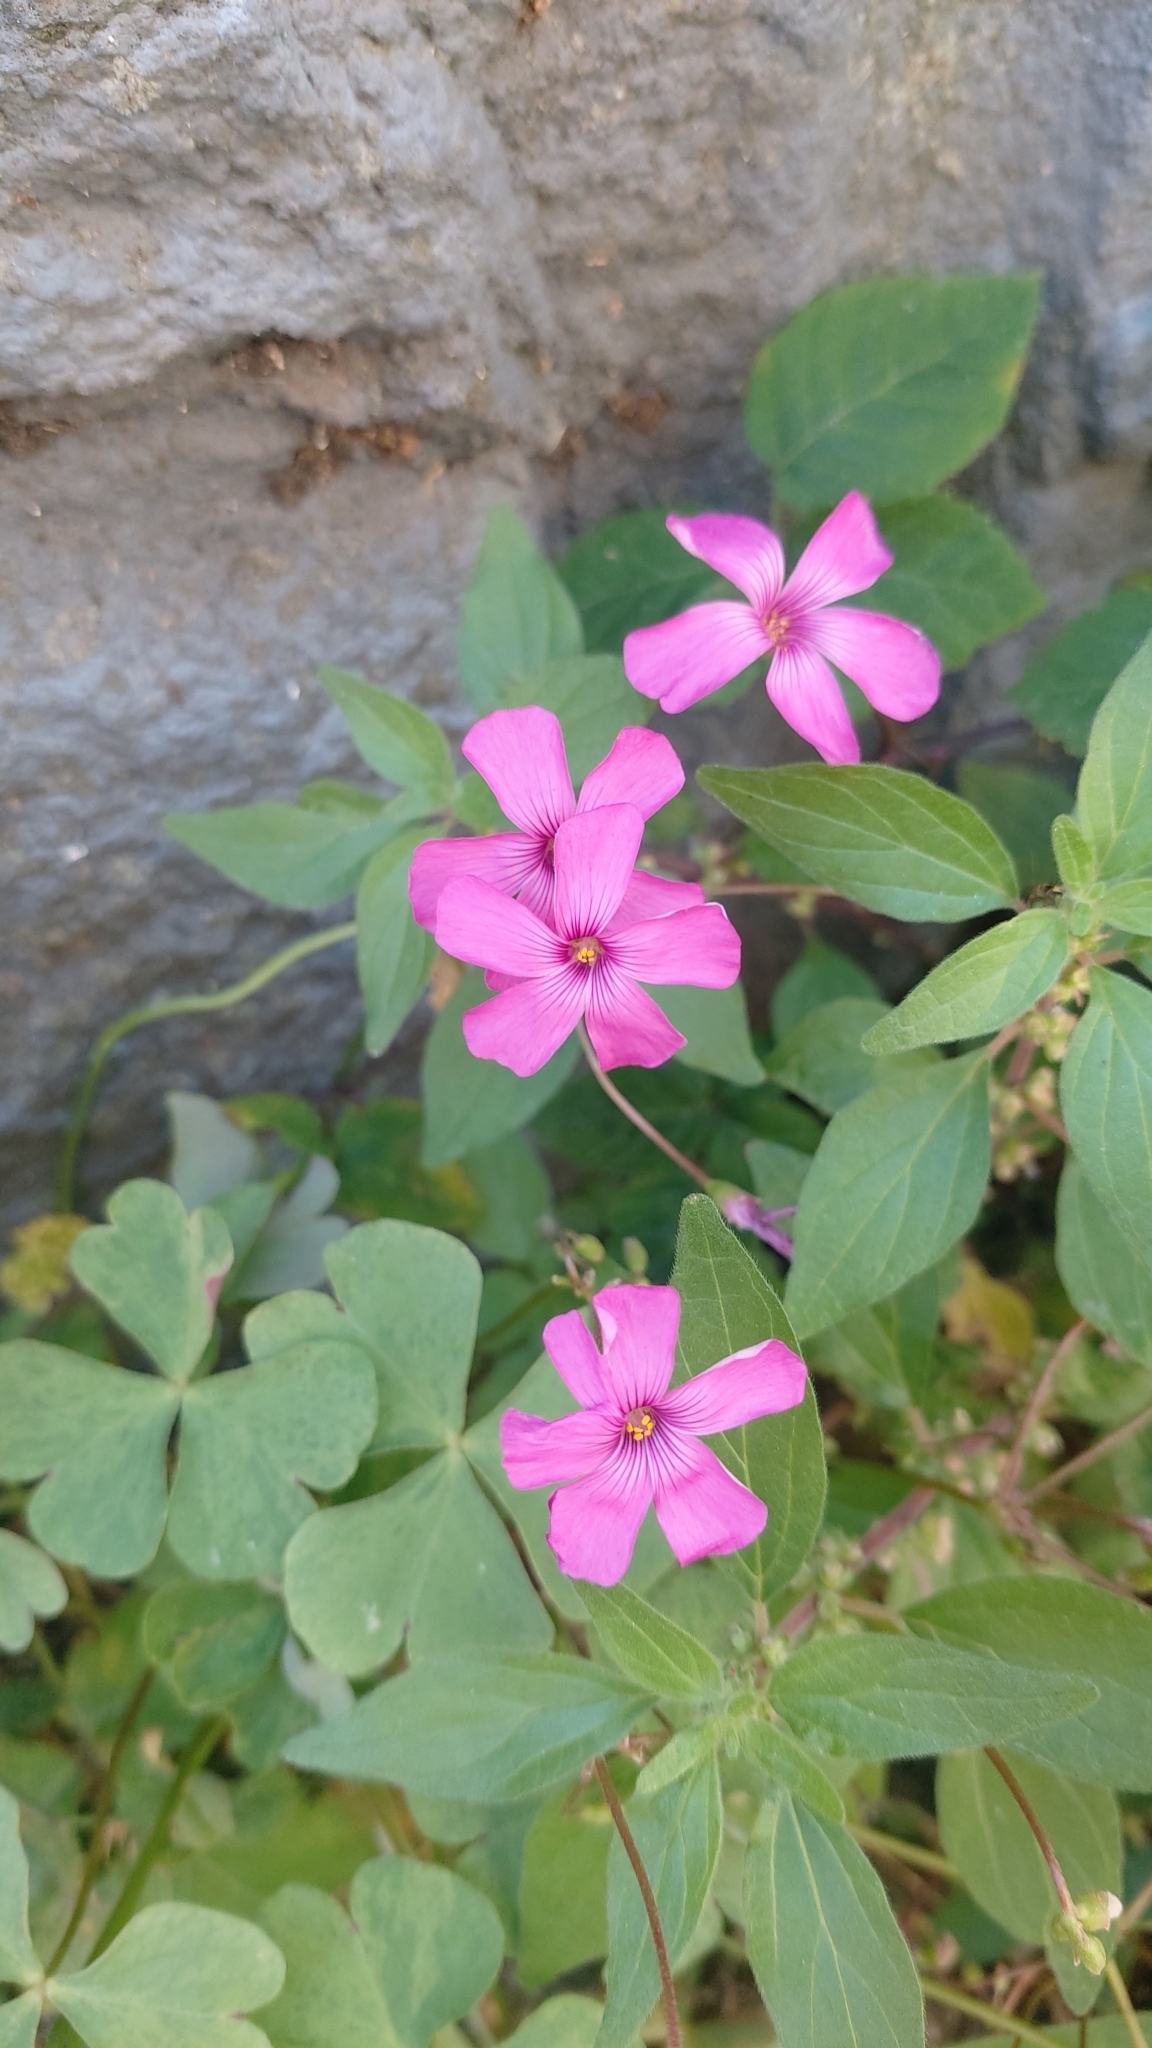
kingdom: Plantae
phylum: Tracheophyta
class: Magnoliopsida
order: Oxalidales
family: Oxalidaceae
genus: Oxalis
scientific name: Oxalis articulata
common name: Pink-sorrel
